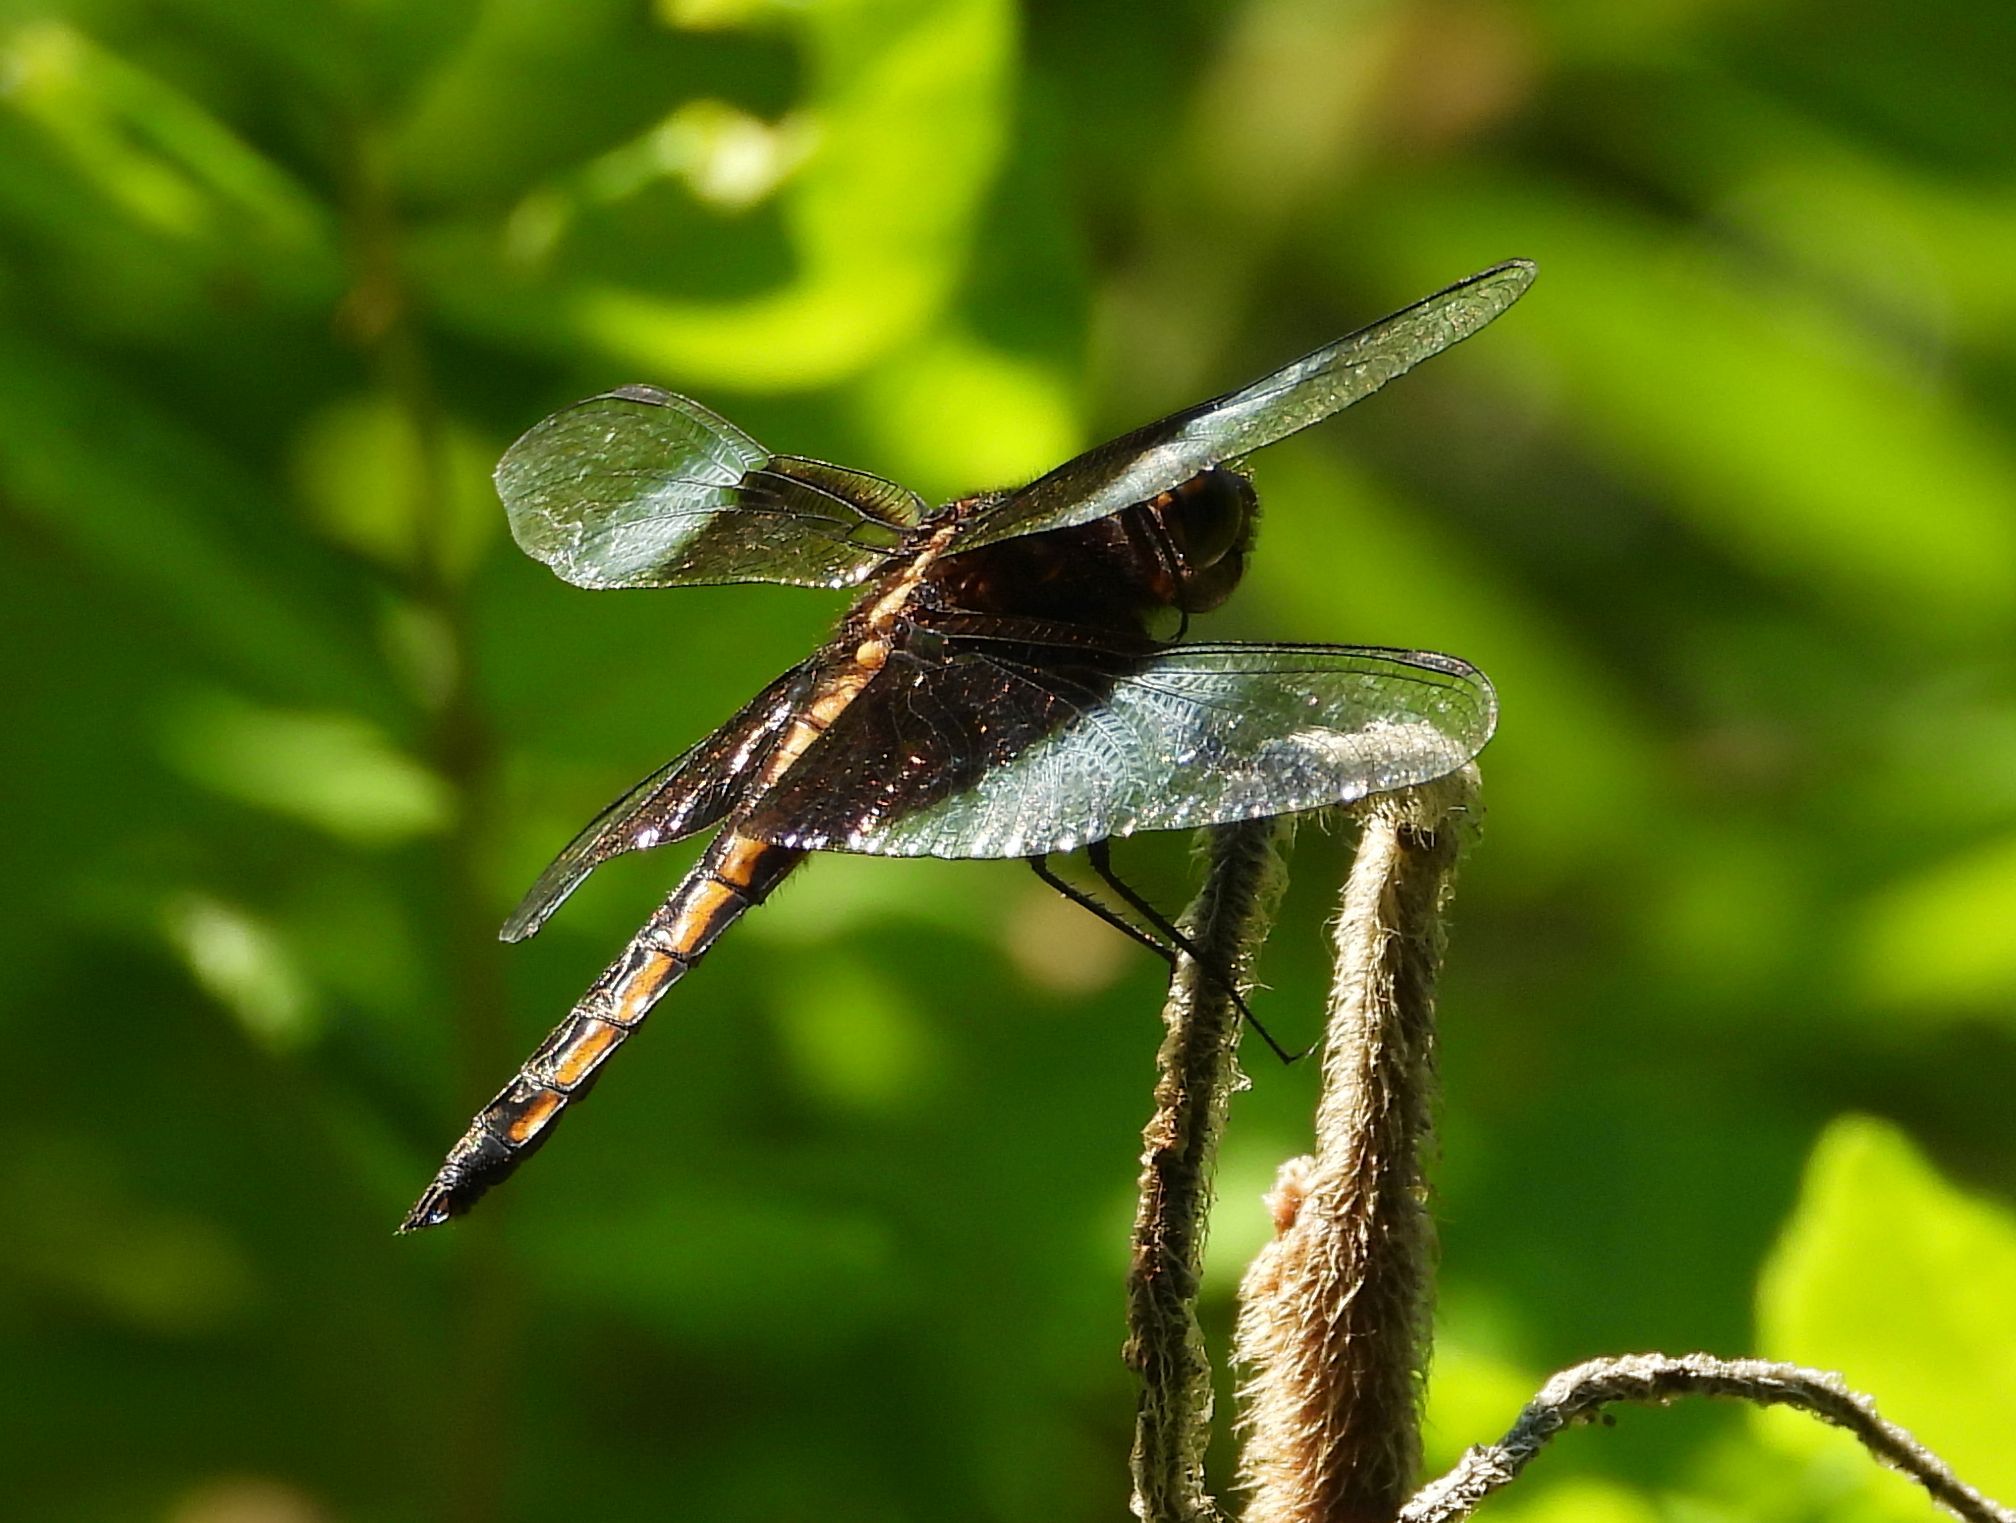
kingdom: Animalia
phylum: Arthropoda
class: Insecta
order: Odonata
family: Libellulidae
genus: Libellula
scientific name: Libellula luctuosa
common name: Widow skimmer
